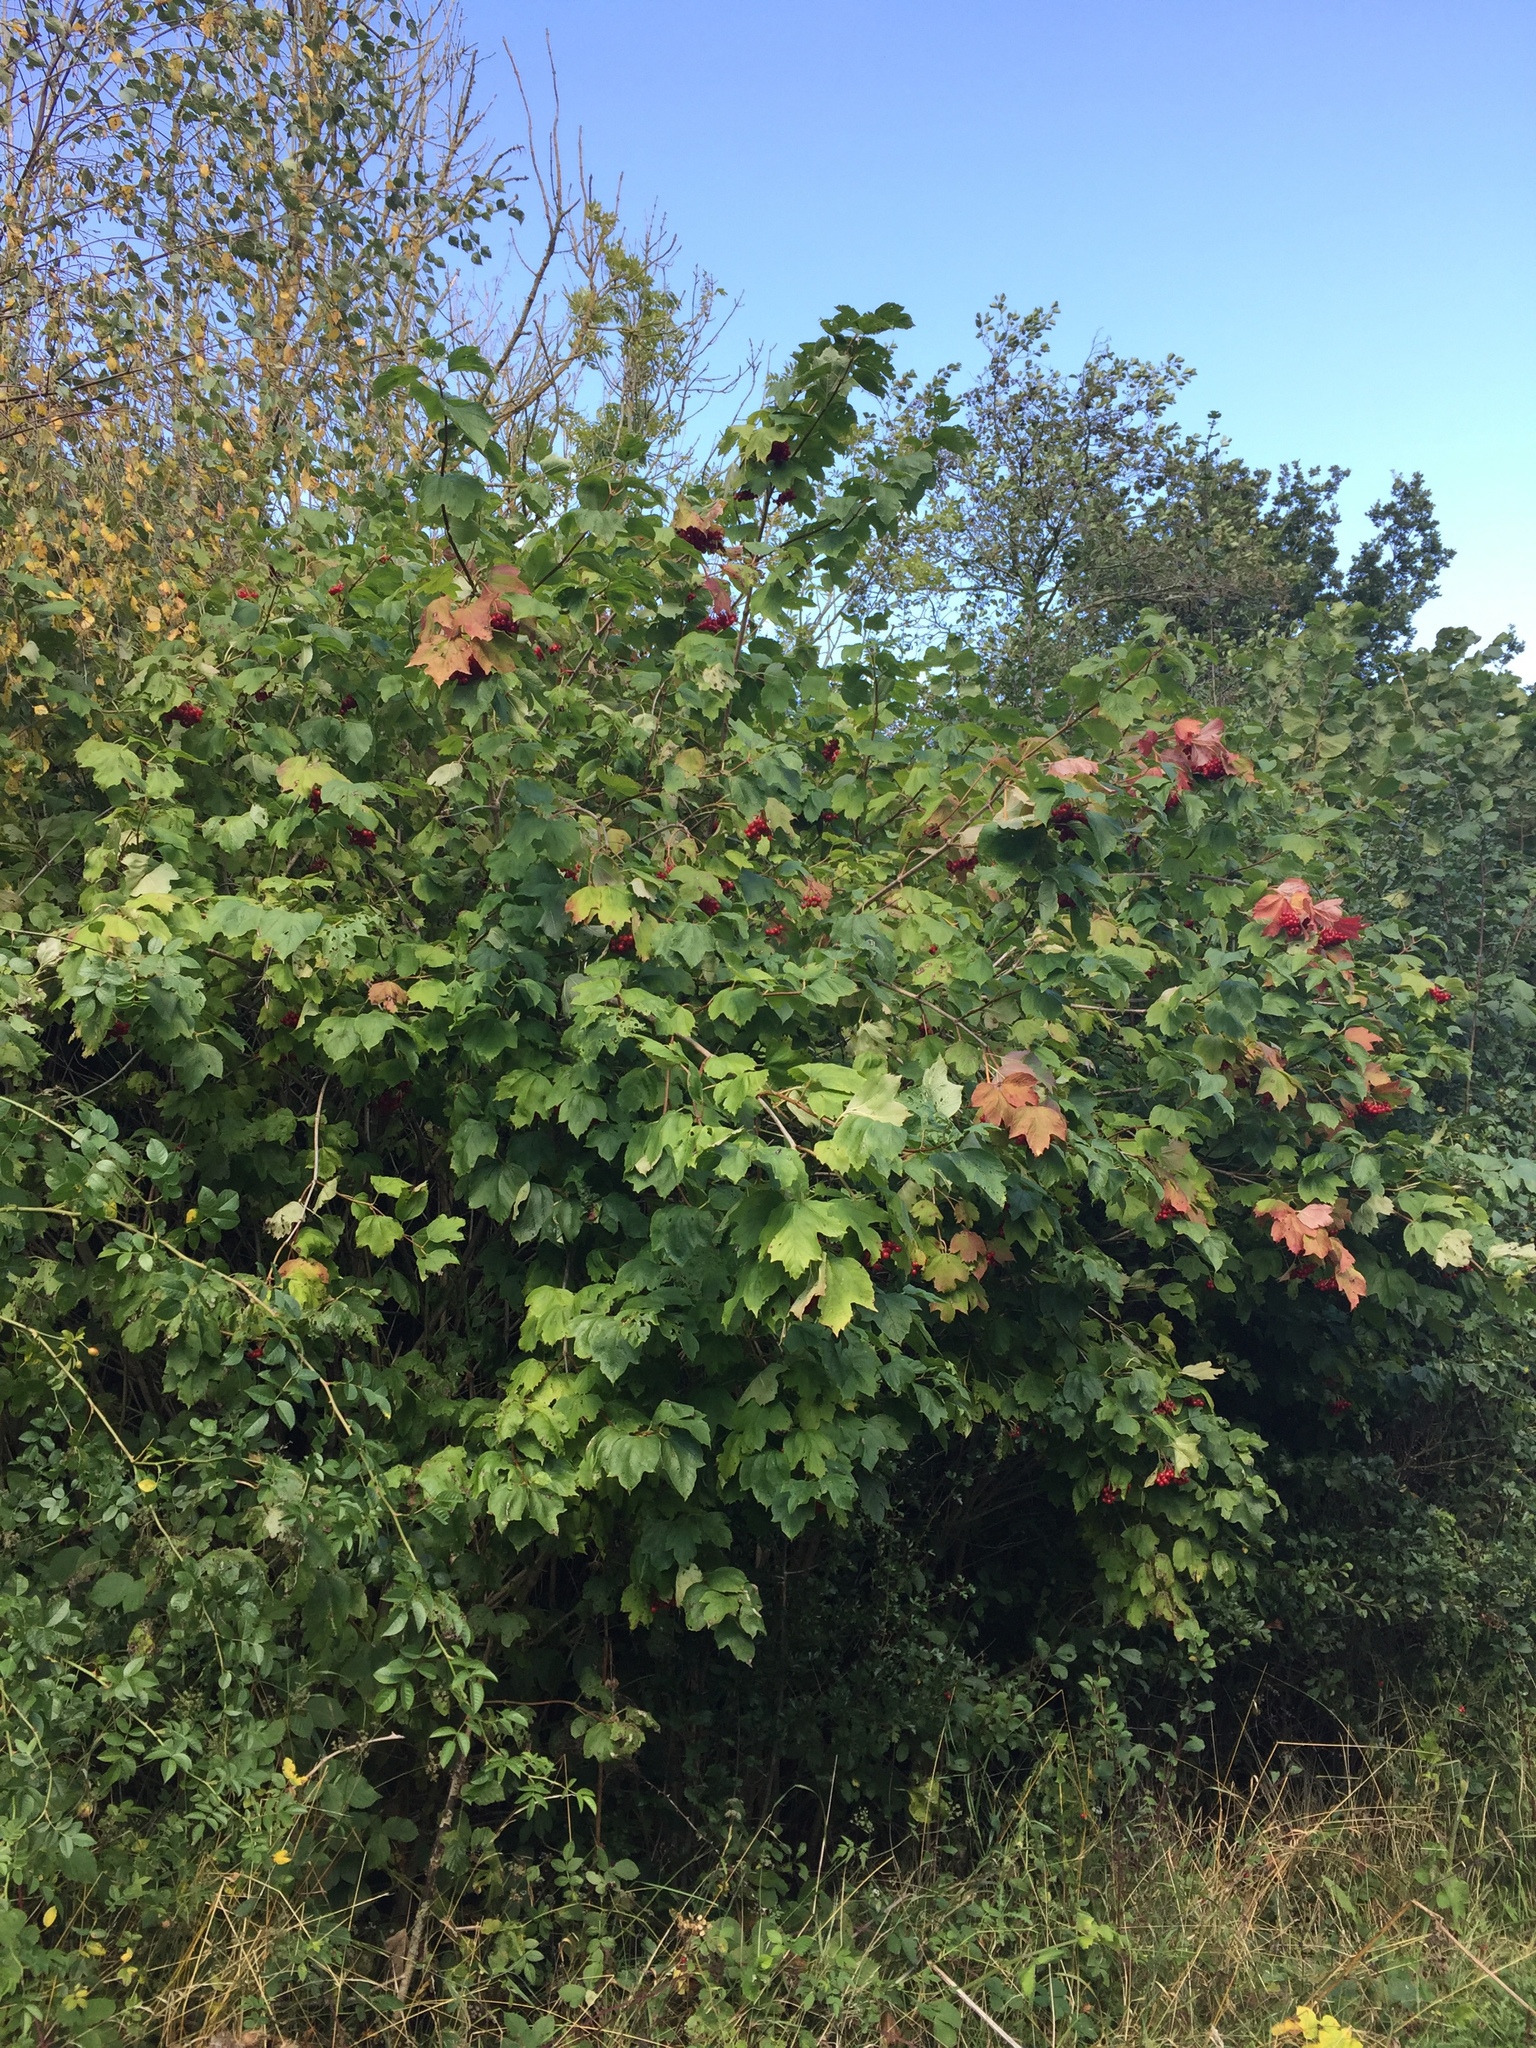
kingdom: Plantae
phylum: Tracheophyta
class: Magnoliopsida
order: Dipsacales
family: Viburnaceae
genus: Viburnum
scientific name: Viburnum opulus
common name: Guelder-rose
